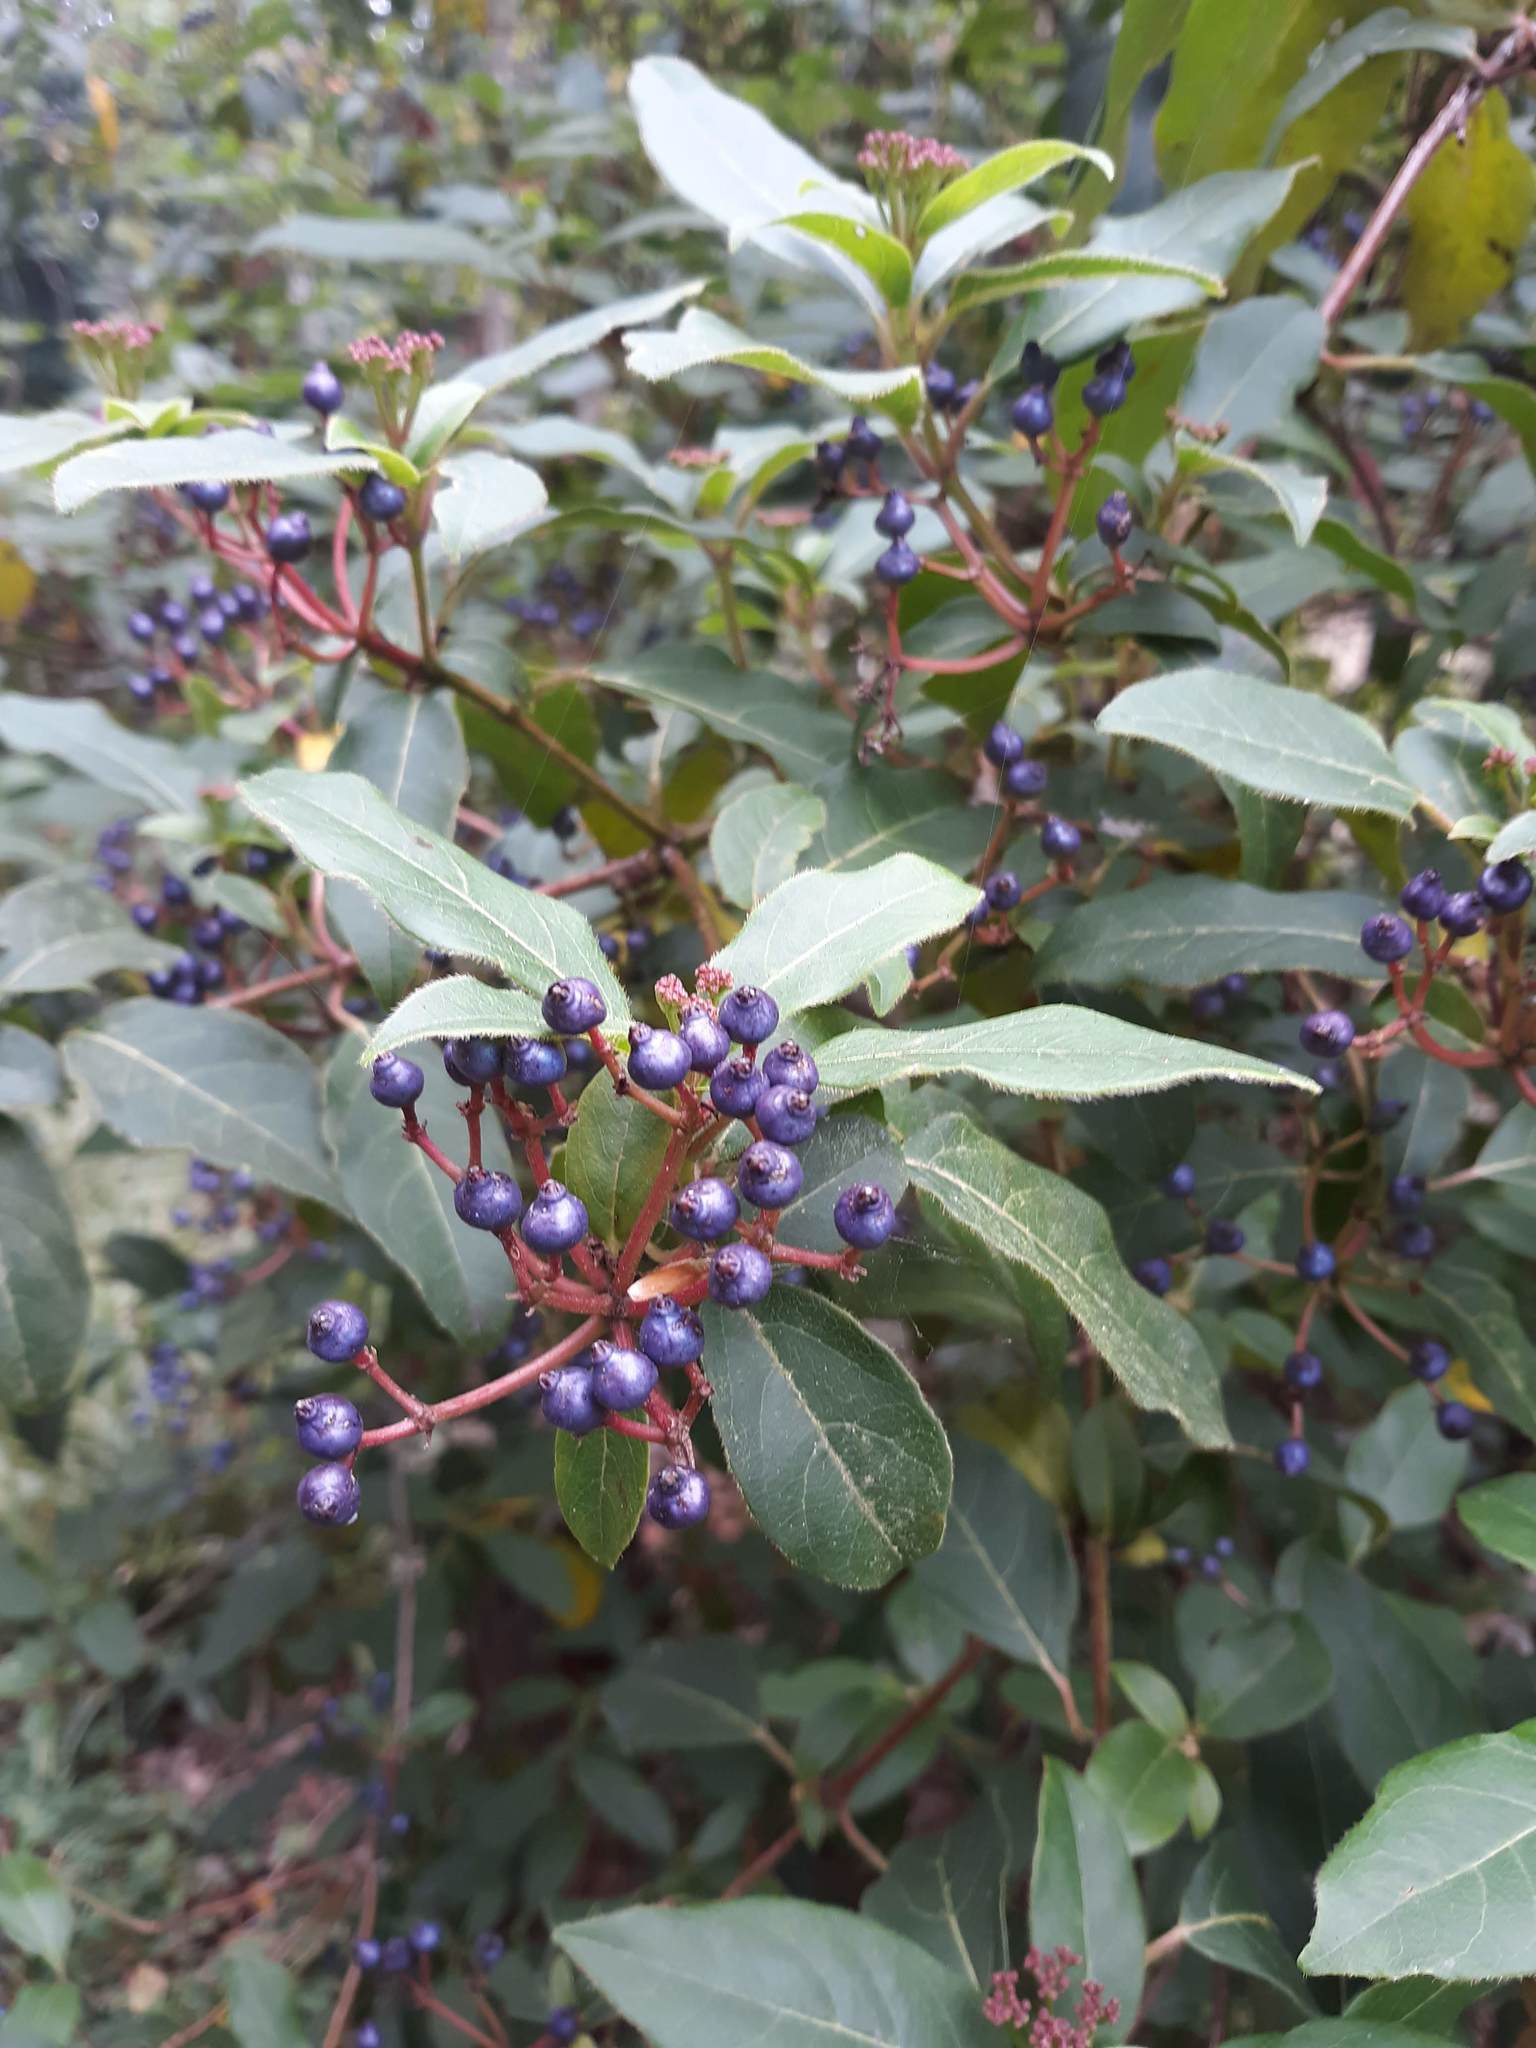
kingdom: Plantae
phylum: Tracheophyta
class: Magnoliopsida
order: Dipsacales
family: Viburnaceae
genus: Viburnum
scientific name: Viburnum tinus
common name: Laurustinus
